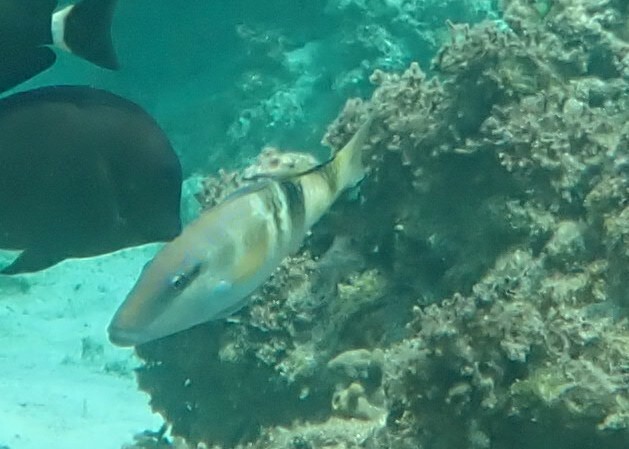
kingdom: Animalia
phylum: Chordata
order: Perciformes
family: Mullidae
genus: Parupeneus
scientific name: Parupeneus multifasciatus
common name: Manybar goatfish
